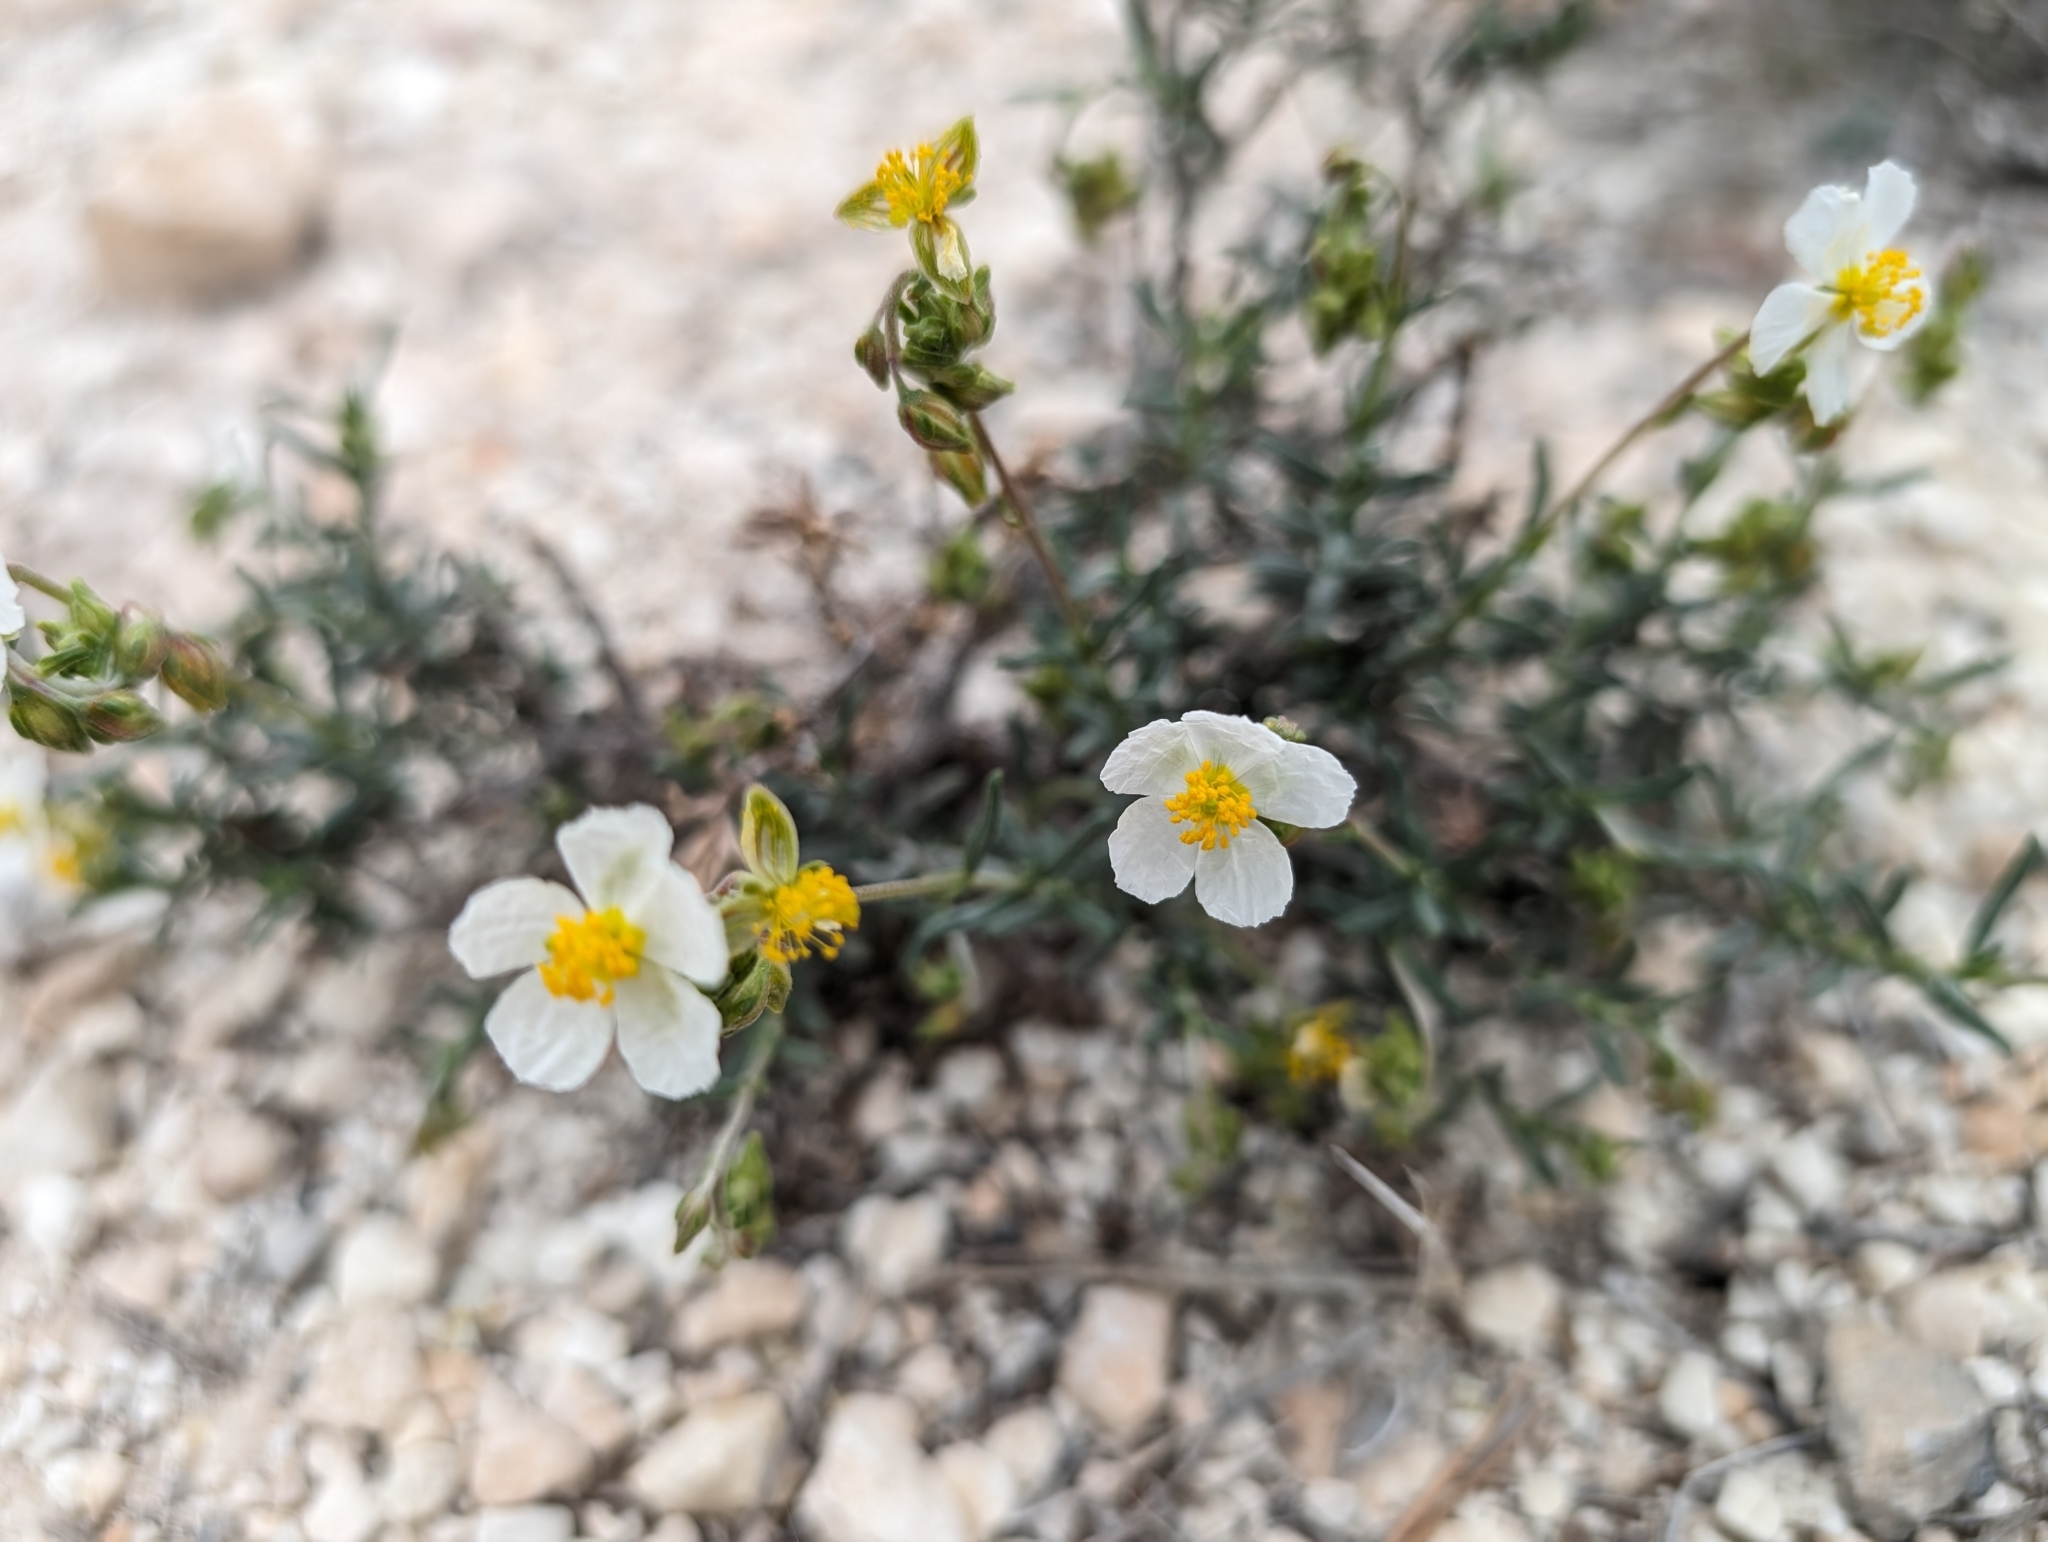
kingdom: Plantae
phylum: Tracheophyta
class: Magnoliopsida
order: Malvales
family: Cistaceae
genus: Helianthemum
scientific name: Helianthemum apenninum
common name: White rock-rose
